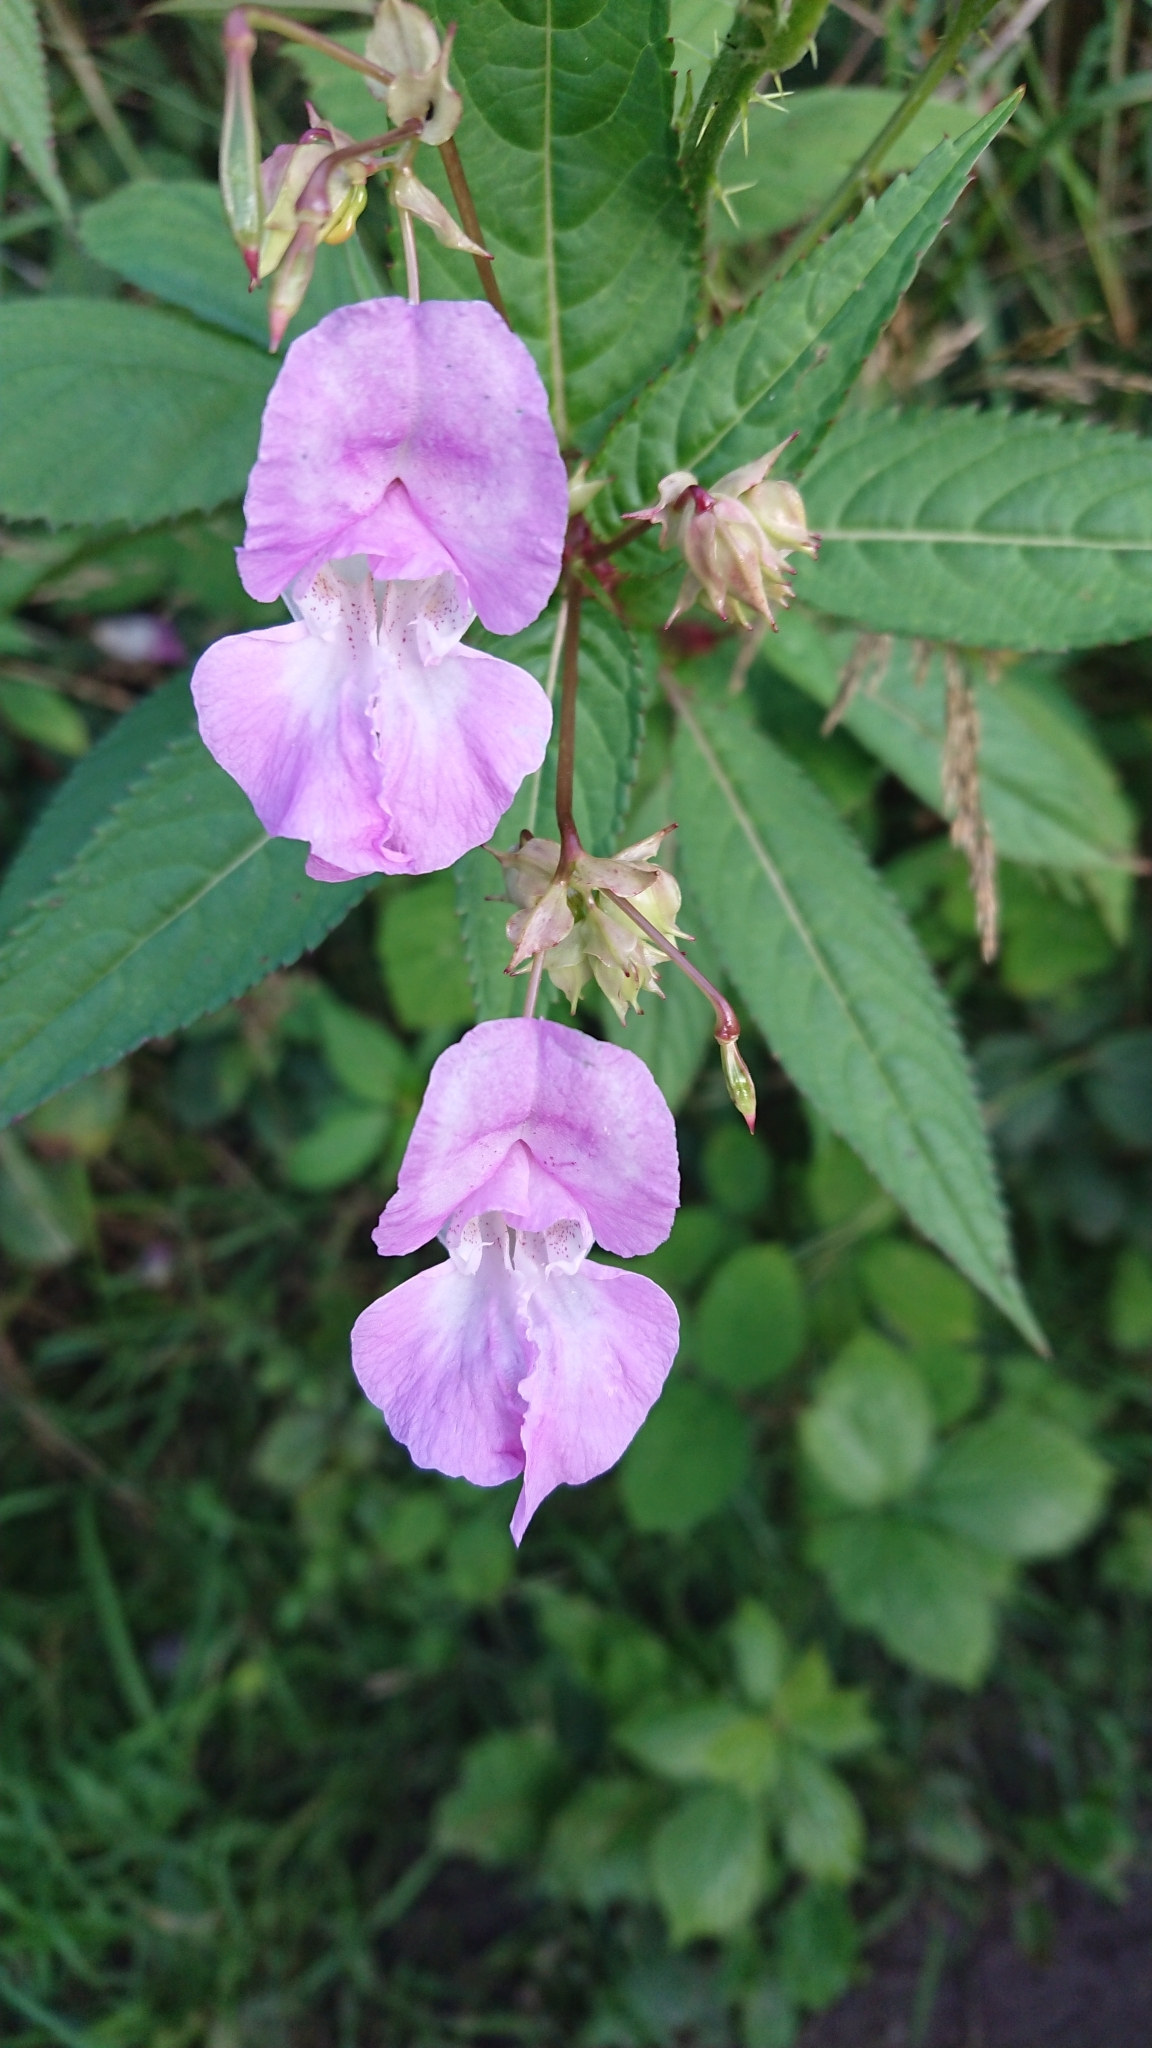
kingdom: Plantae
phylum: Tracheophyta
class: Magnoliopsida
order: Ericales
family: Balsaminaceae
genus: Impatiens
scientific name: Impatiens glandulifera
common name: Himalayan balsam
